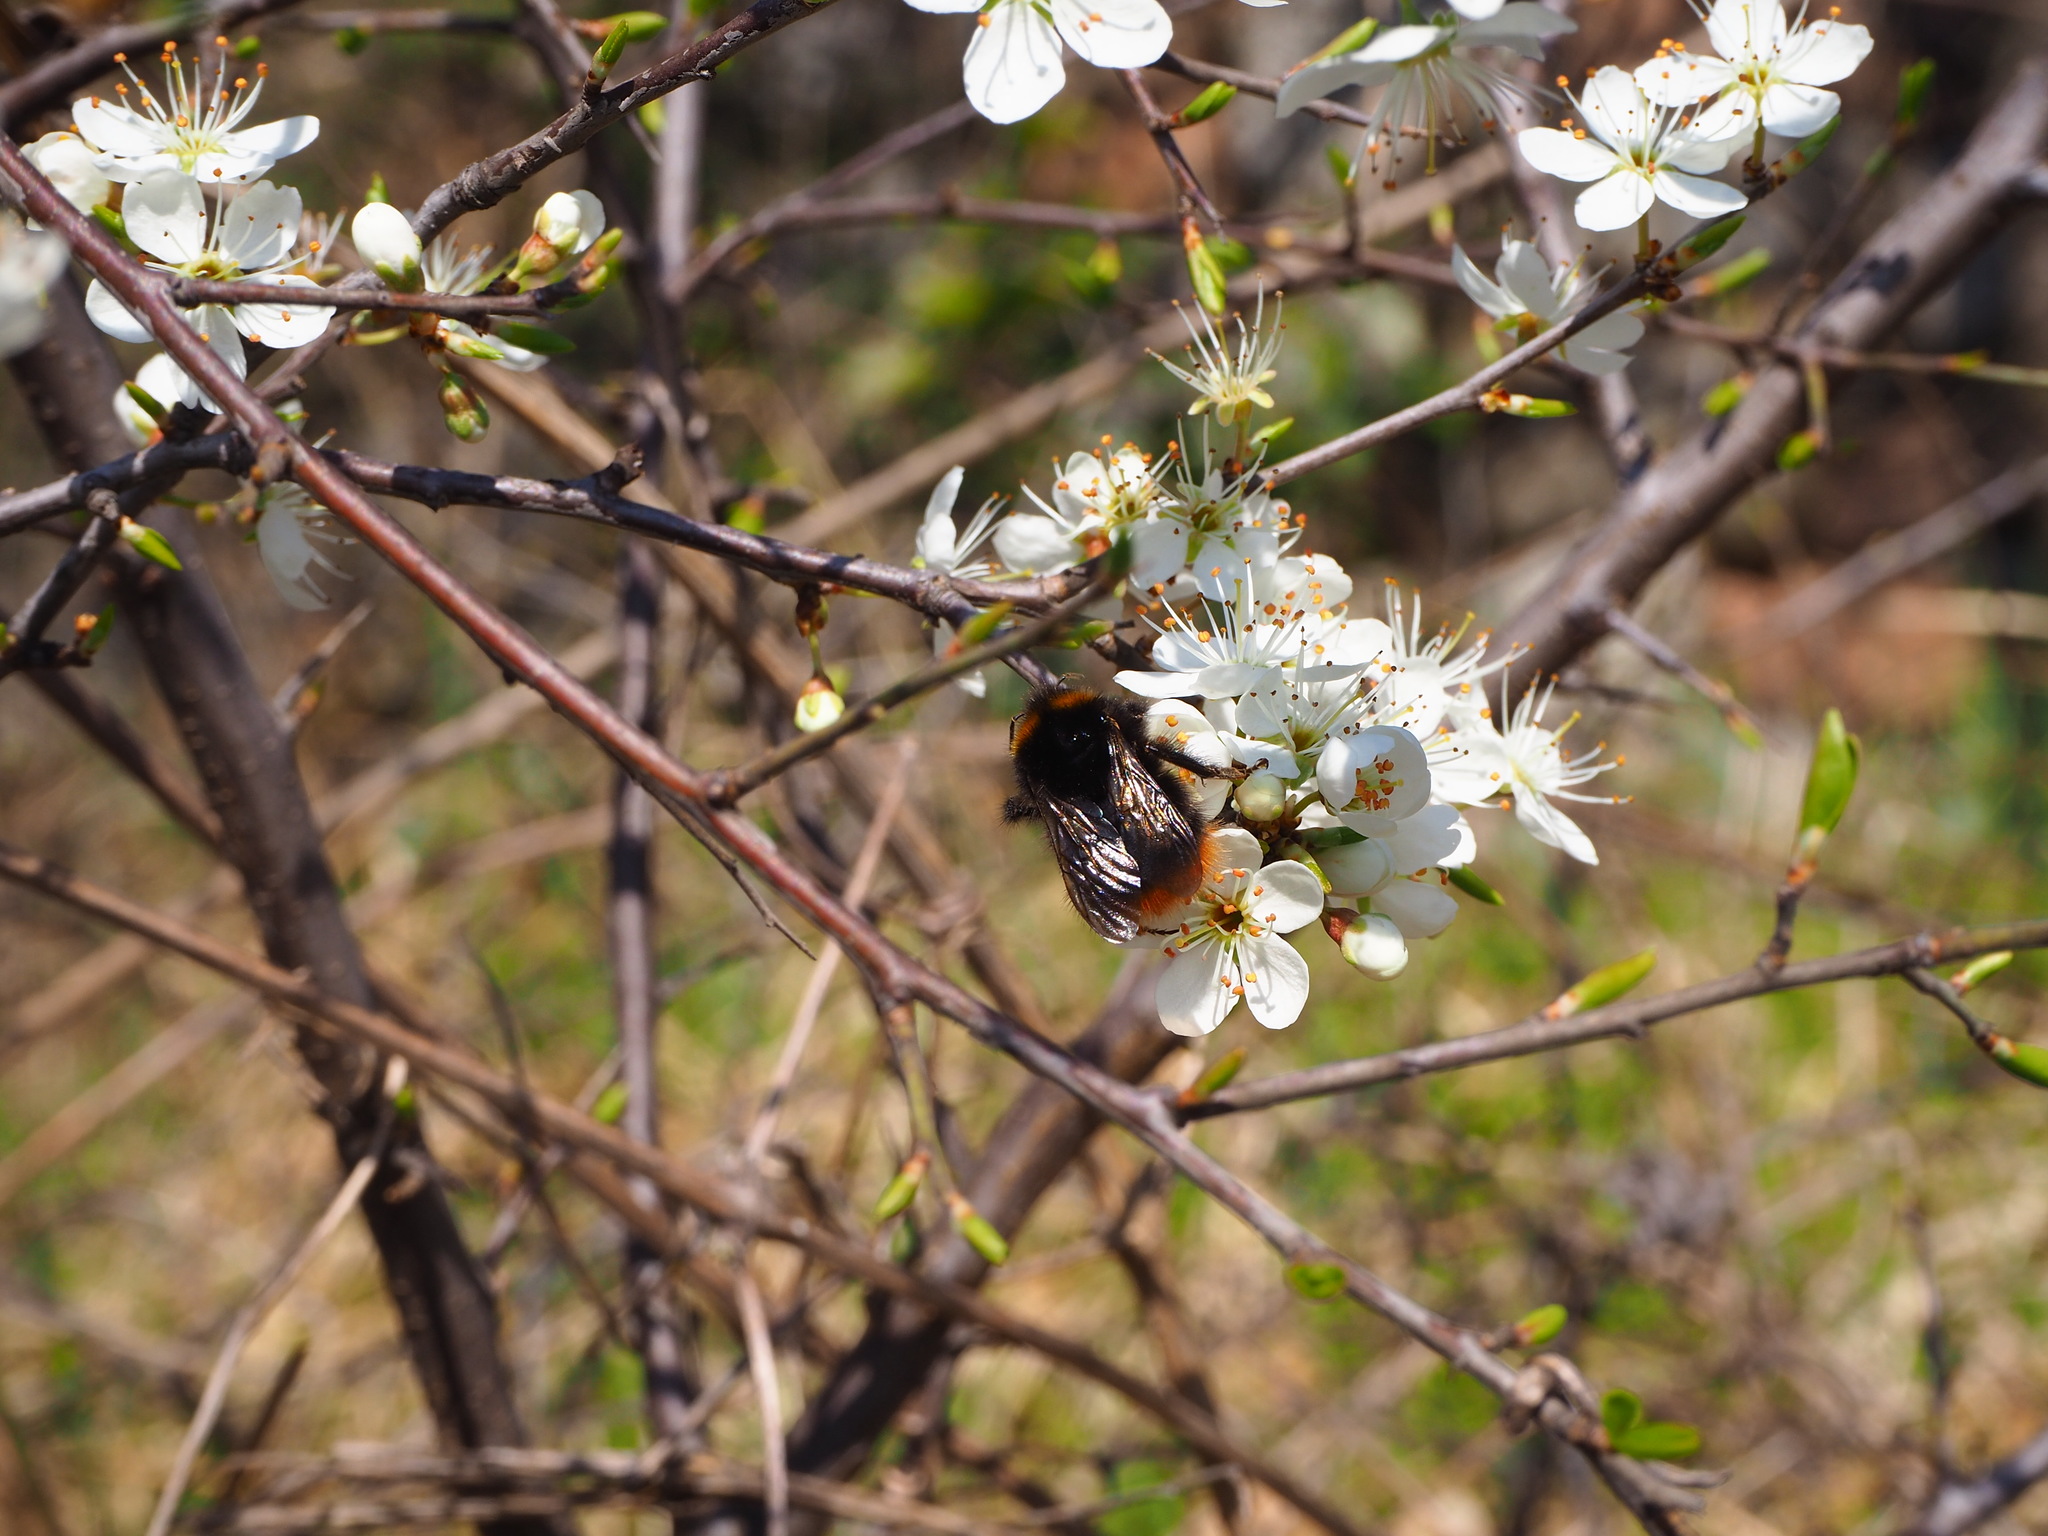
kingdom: Animalia
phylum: Arthropoda
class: Insecta
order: Hymenoptera
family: Apidae
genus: Bombus
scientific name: Bombus pratorum
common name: Early humble-bee
